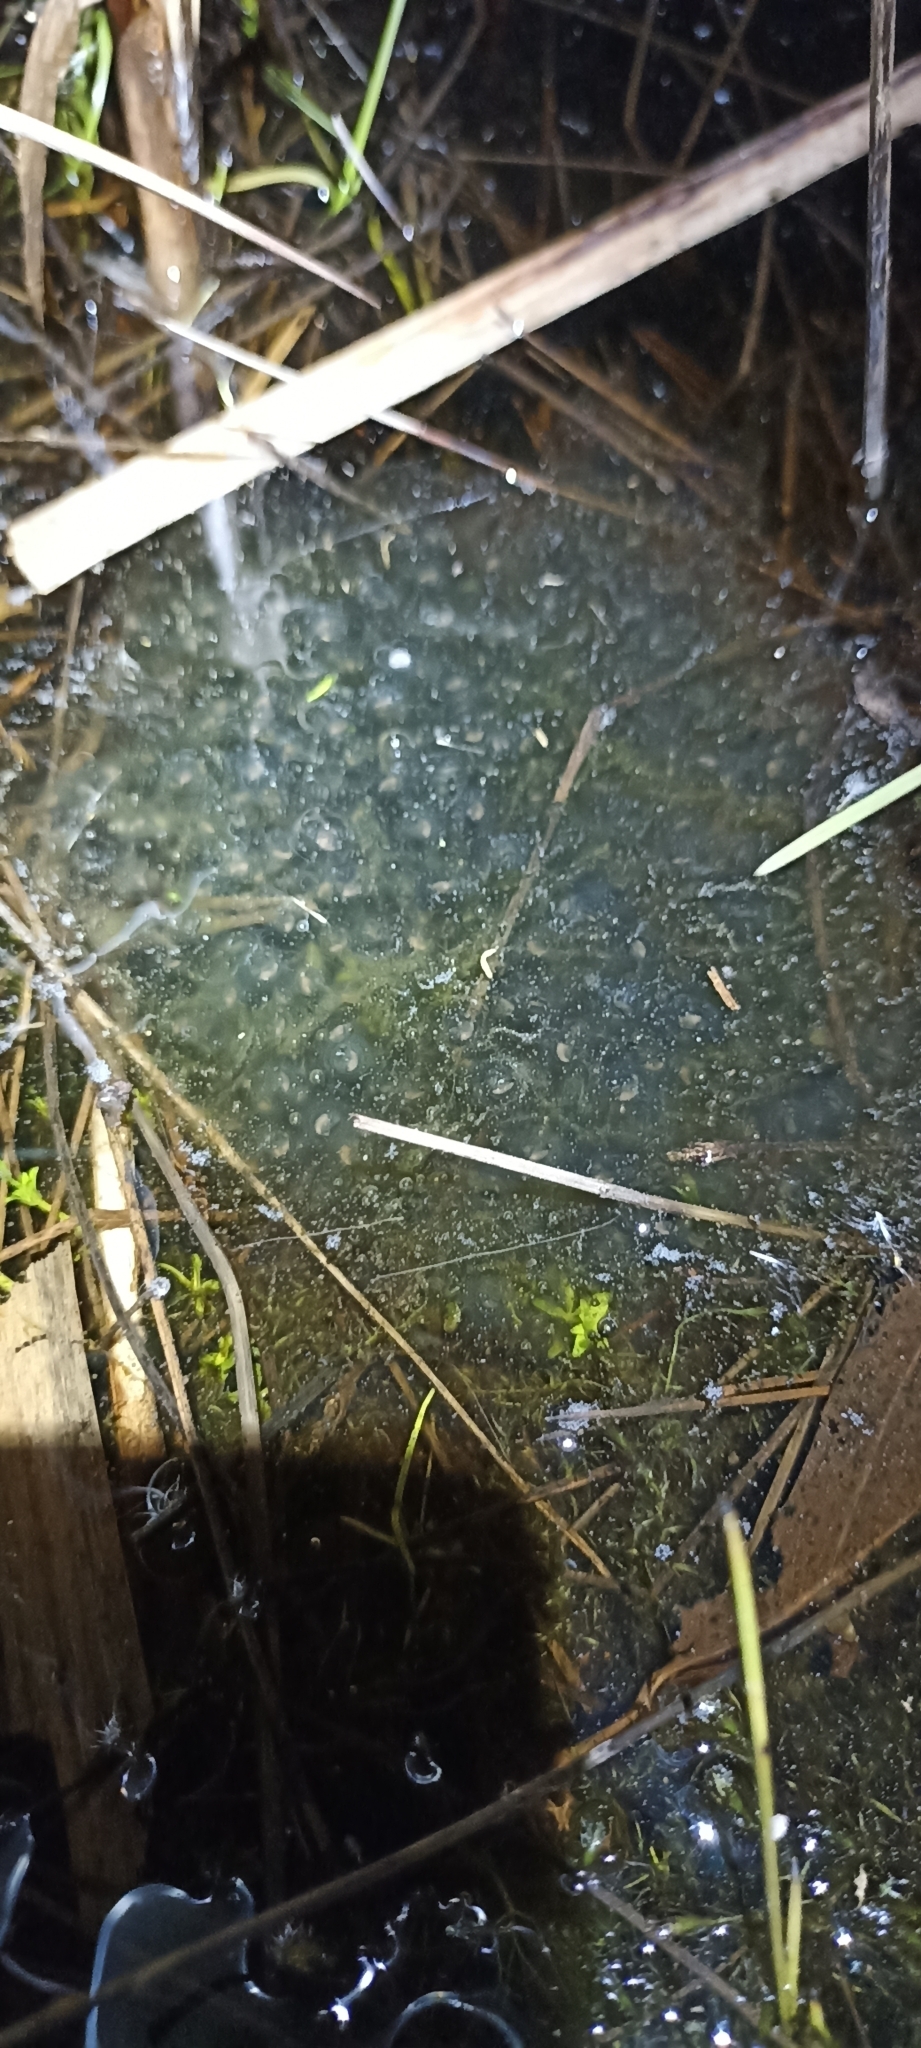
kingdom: Animalia
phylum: Chordata
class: Amphibia
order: Anura
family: Ranidae
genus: Rana
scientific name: Rana dalmatina
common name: Agile frog
